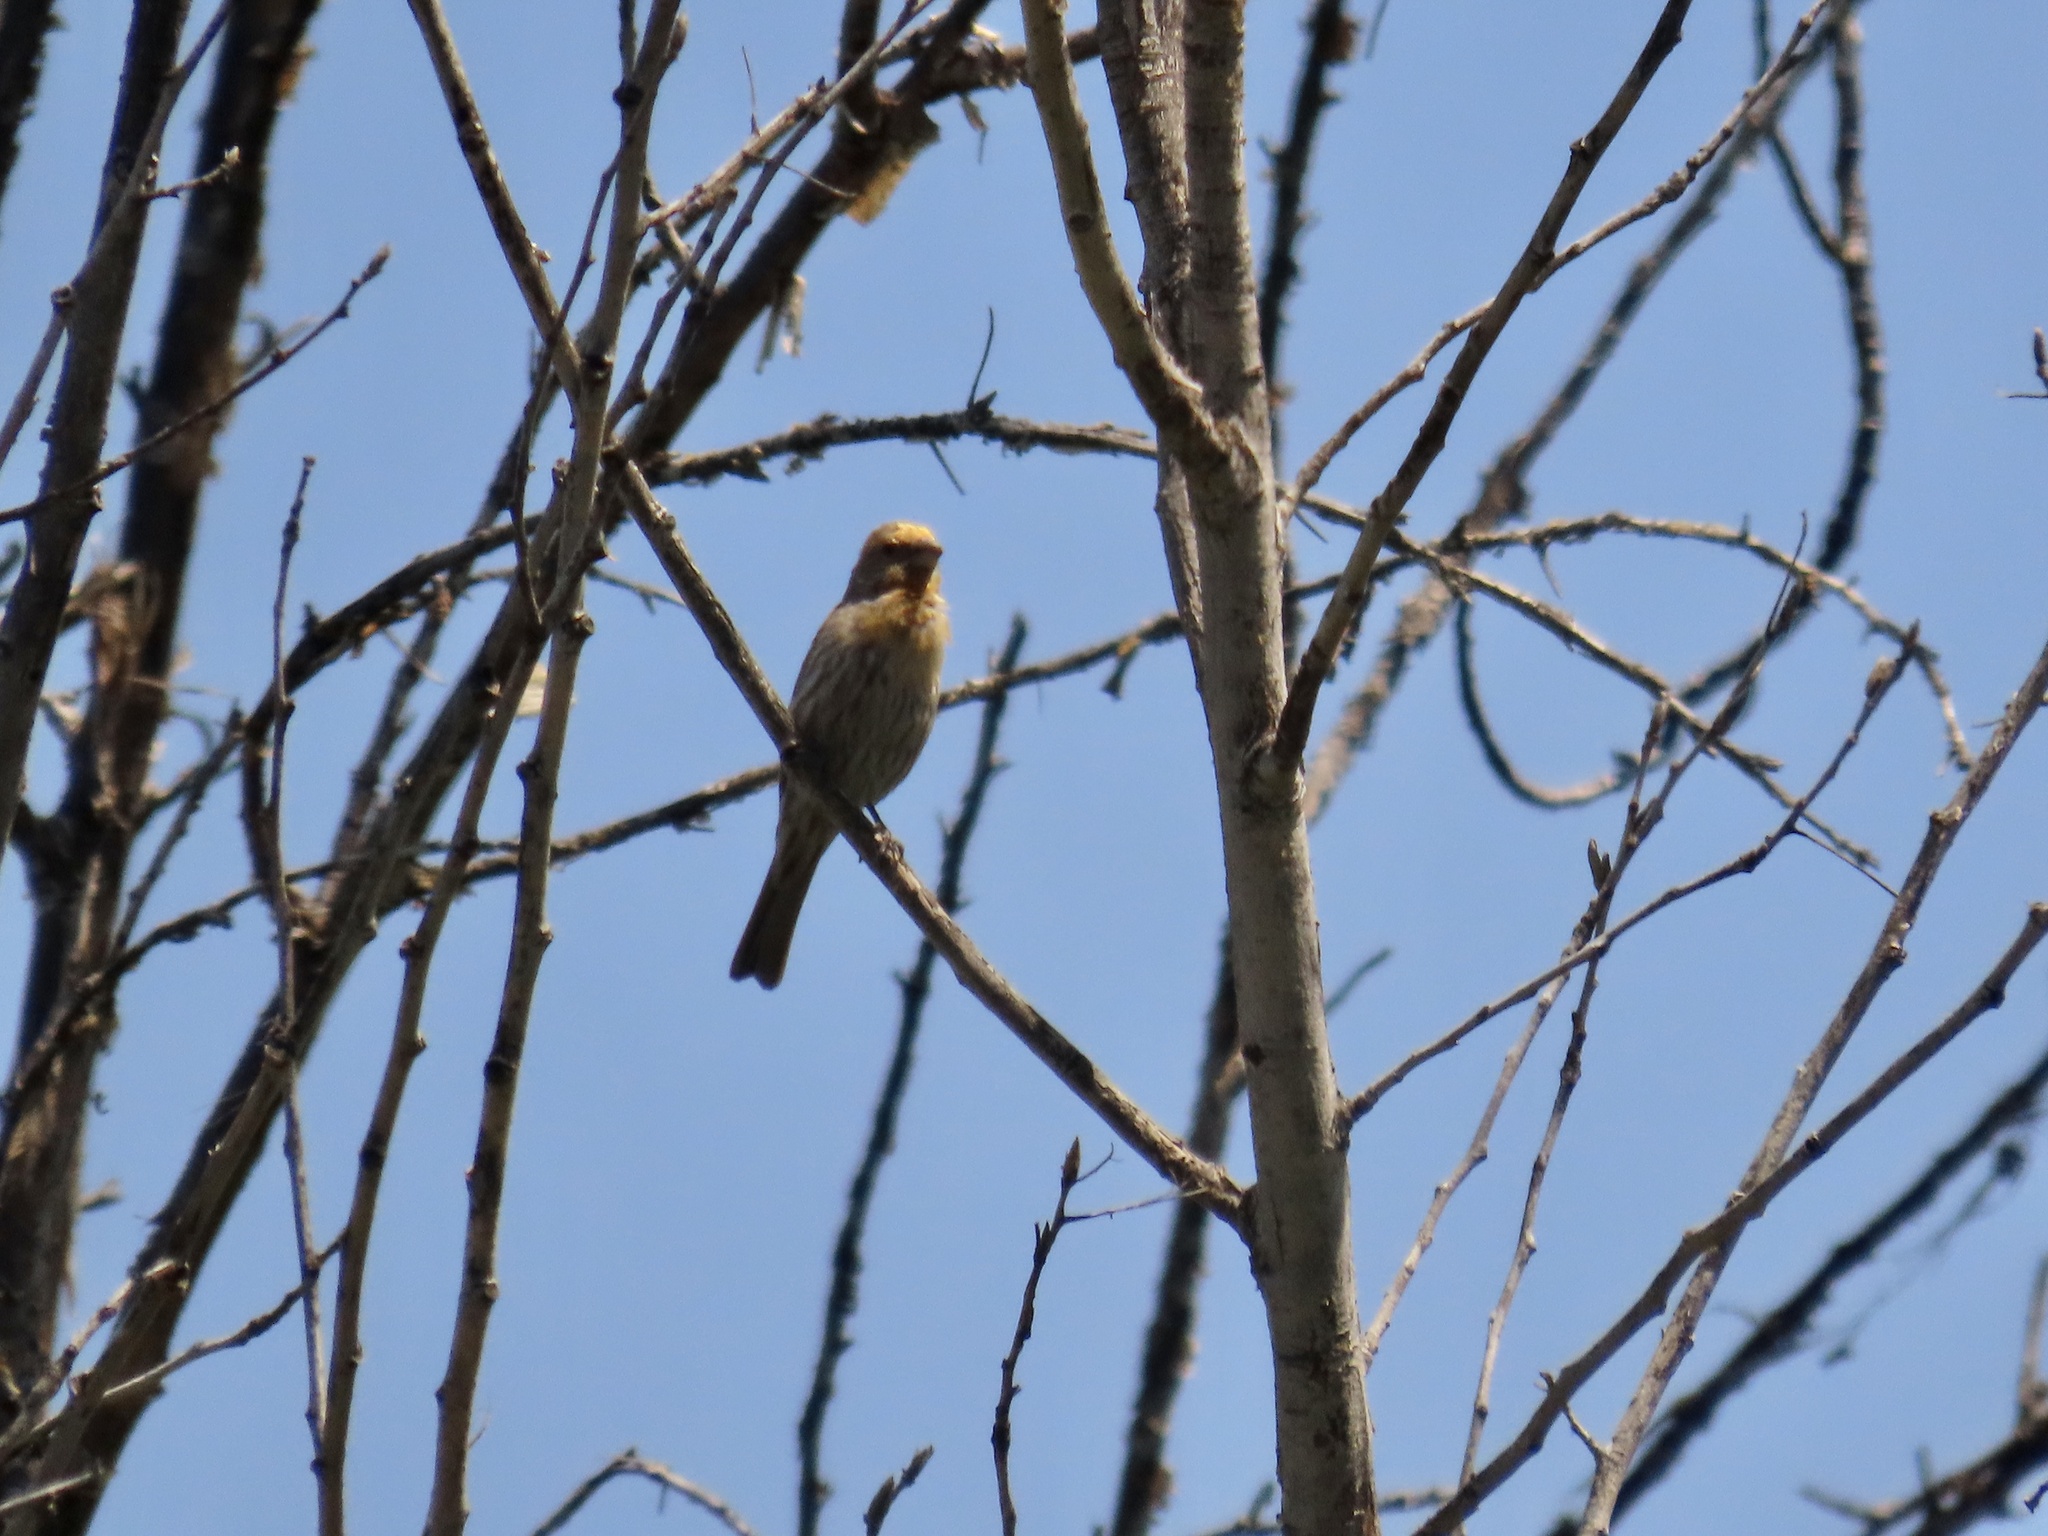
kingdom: Animalia
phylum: Chordata
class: Aves
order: Passeriformes
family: Fringillidae
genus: Haemorhous
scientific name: Haemorhous mexicanus
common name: House finch
